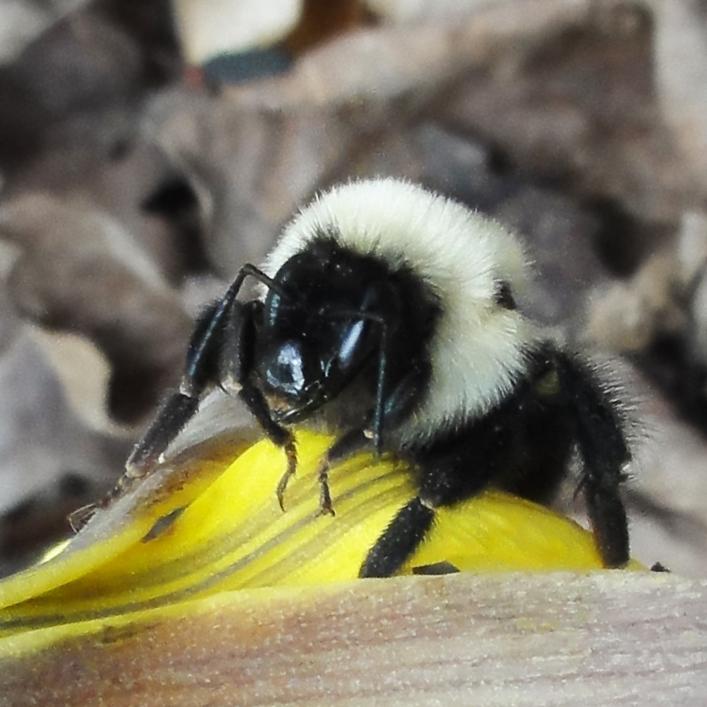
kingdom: Animalia
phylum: Arthropoda
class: Insecta
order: Hymenoptera
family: Apidae
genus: Bombus
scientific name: Bombus impatiens
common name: Common eastern bumble bee
